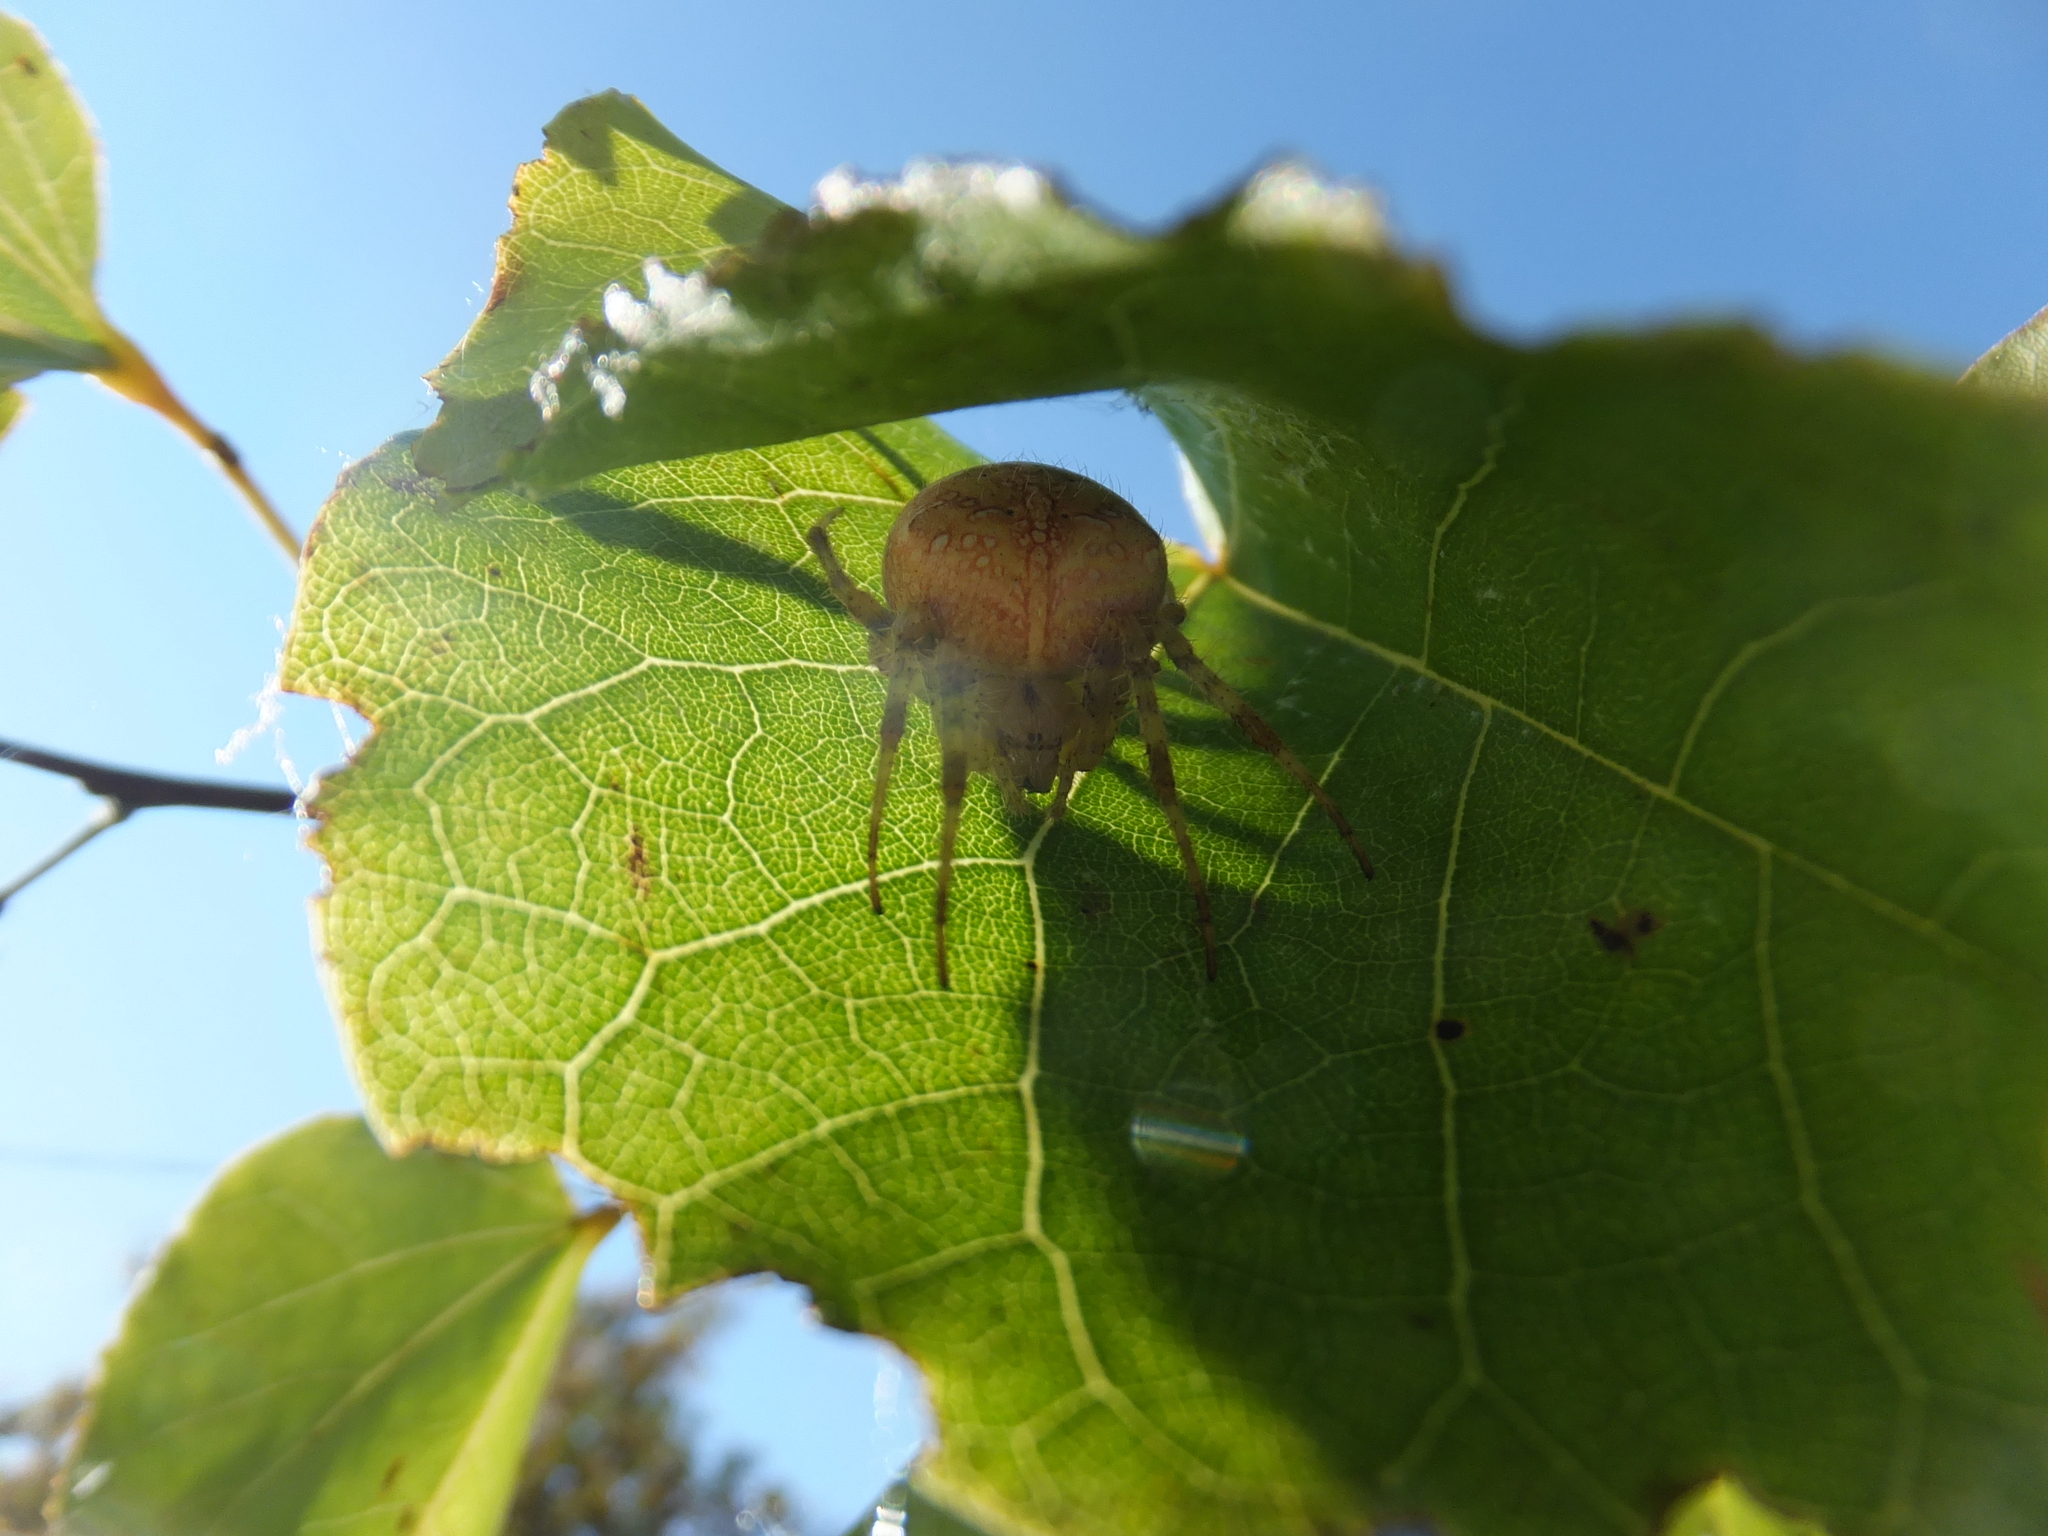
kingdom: Animalia
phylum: Arthropoda
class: Arachnida
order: Araneae
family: Araneidae
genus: Araneus
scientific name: Araneus diadematus
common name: Cross orbweaver
